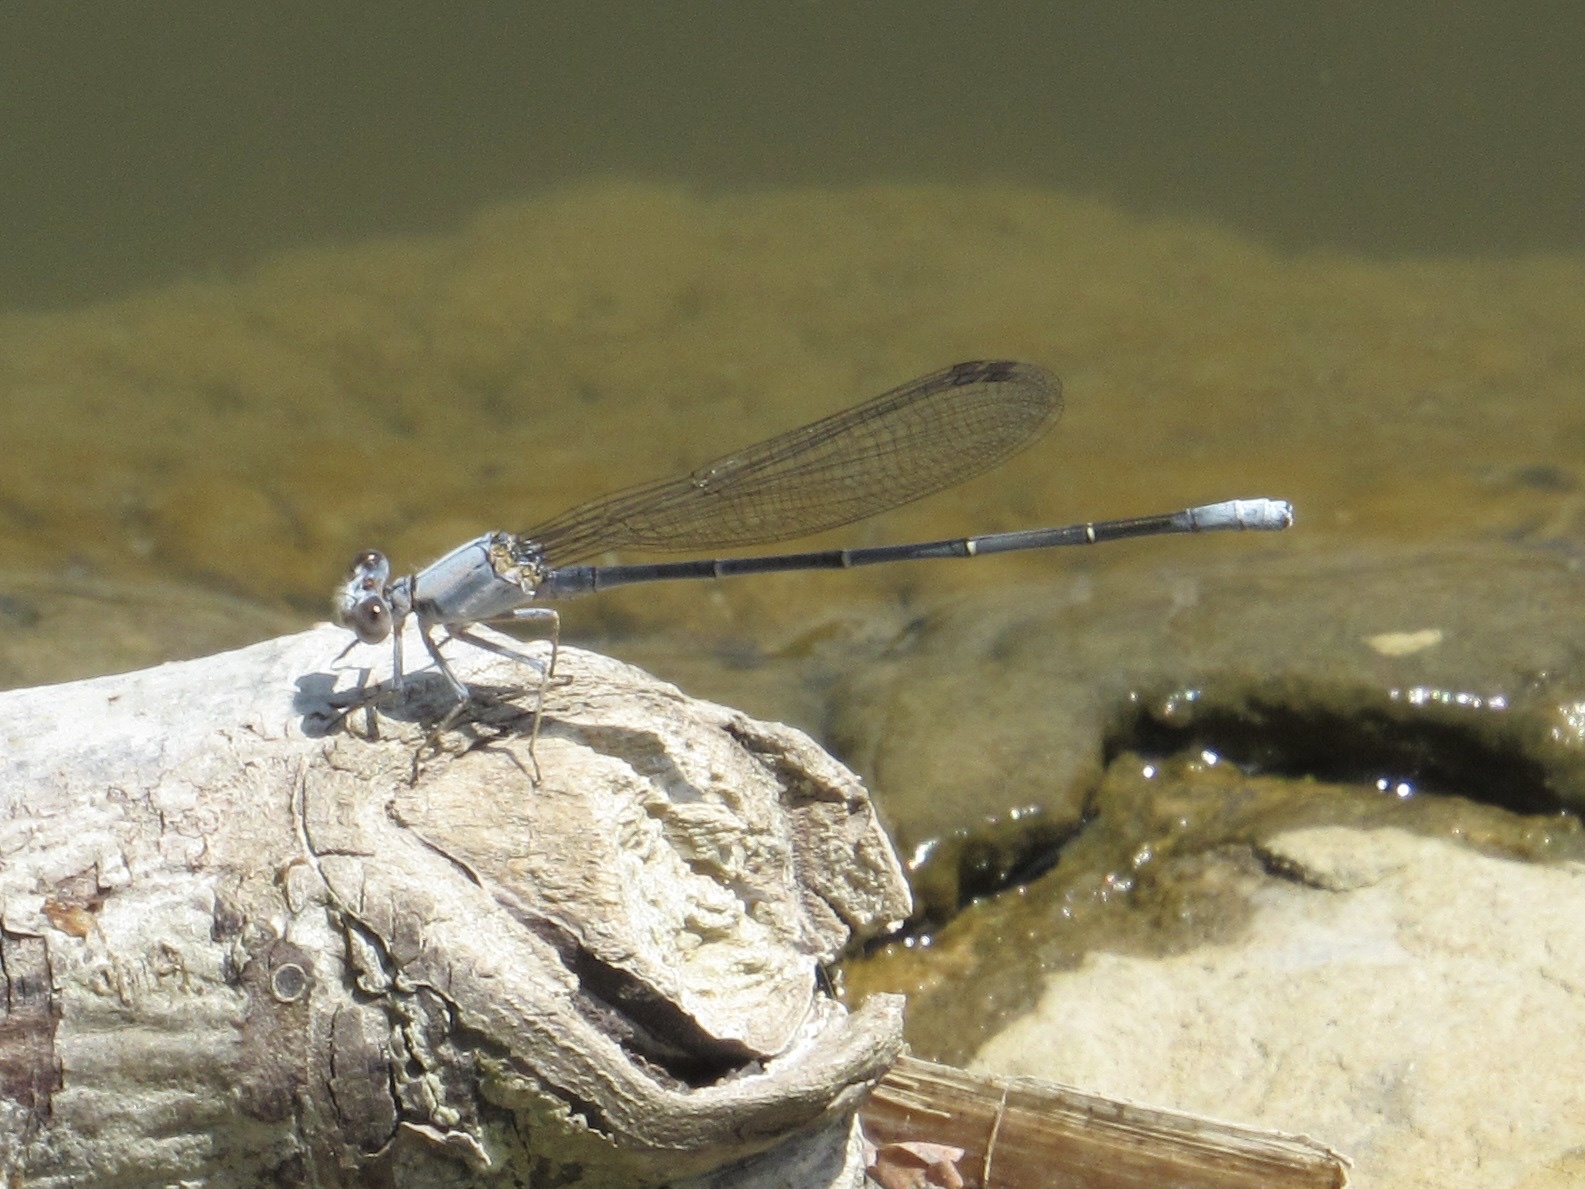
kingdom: Animalia
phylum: Arthropoda
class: Insecta
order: Odonata
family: Coenagrionidae
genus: Argia
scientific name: Argia moesta
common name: Powdered dancer
